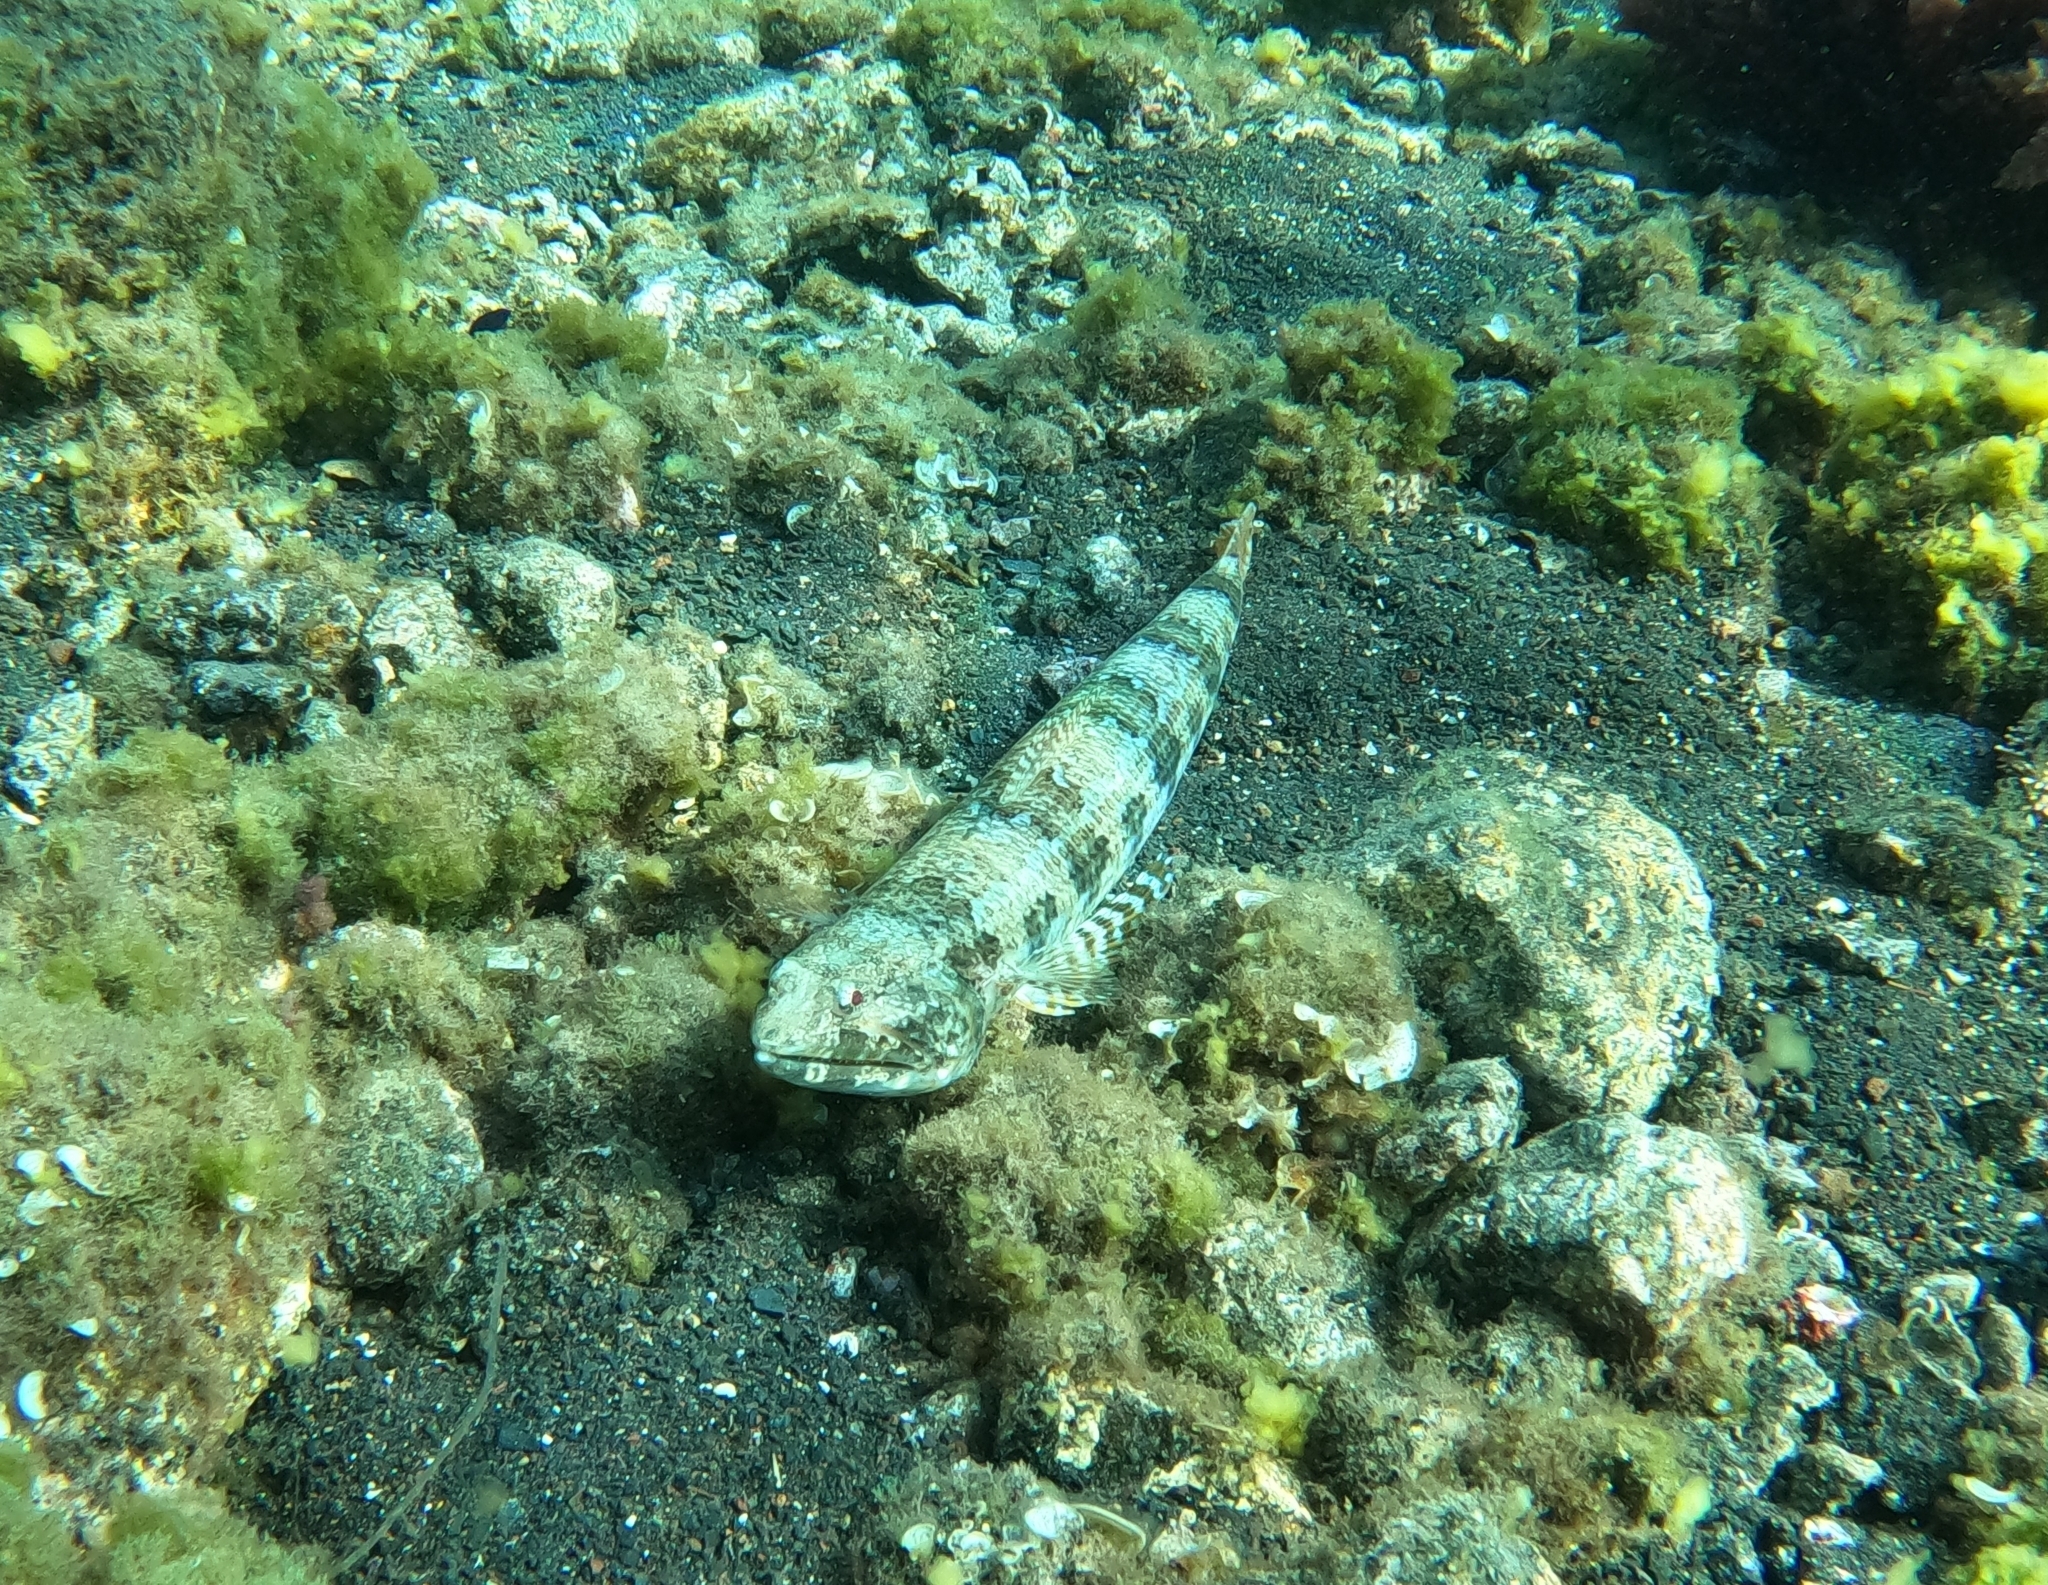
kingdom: Animalia
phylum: Chordata
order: Aulopiformes
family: Synodontidae
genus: Synodus
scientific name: Synodus synodus
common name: Red lizardfish
